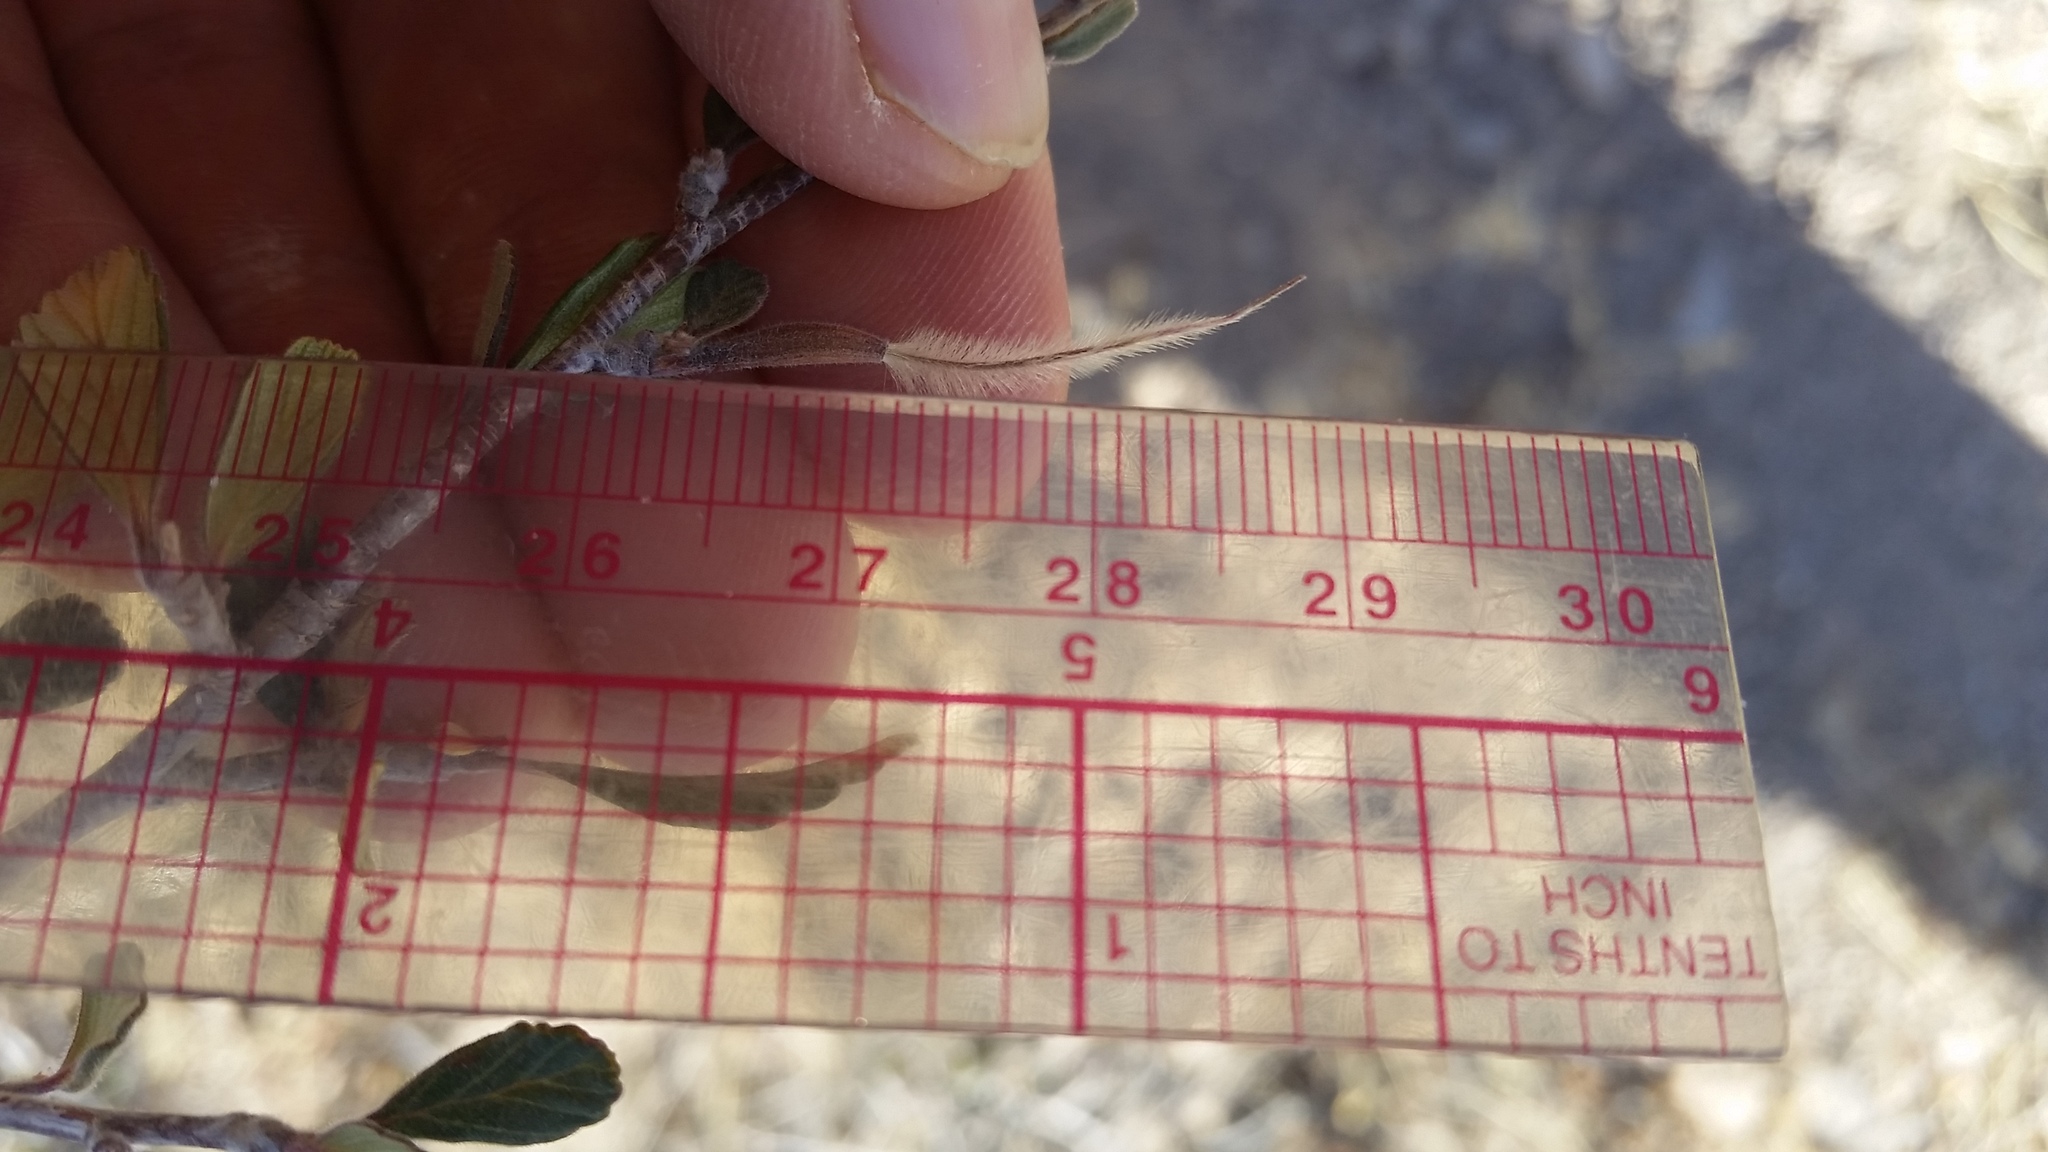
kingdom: Plantae
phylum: Tracheophyta
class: Magnoliopsida
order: Rosales
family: Rosaceae
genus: Cercocarpus
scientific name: Cercocarpus breviflorus
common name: Wright's mountain-mahogany
